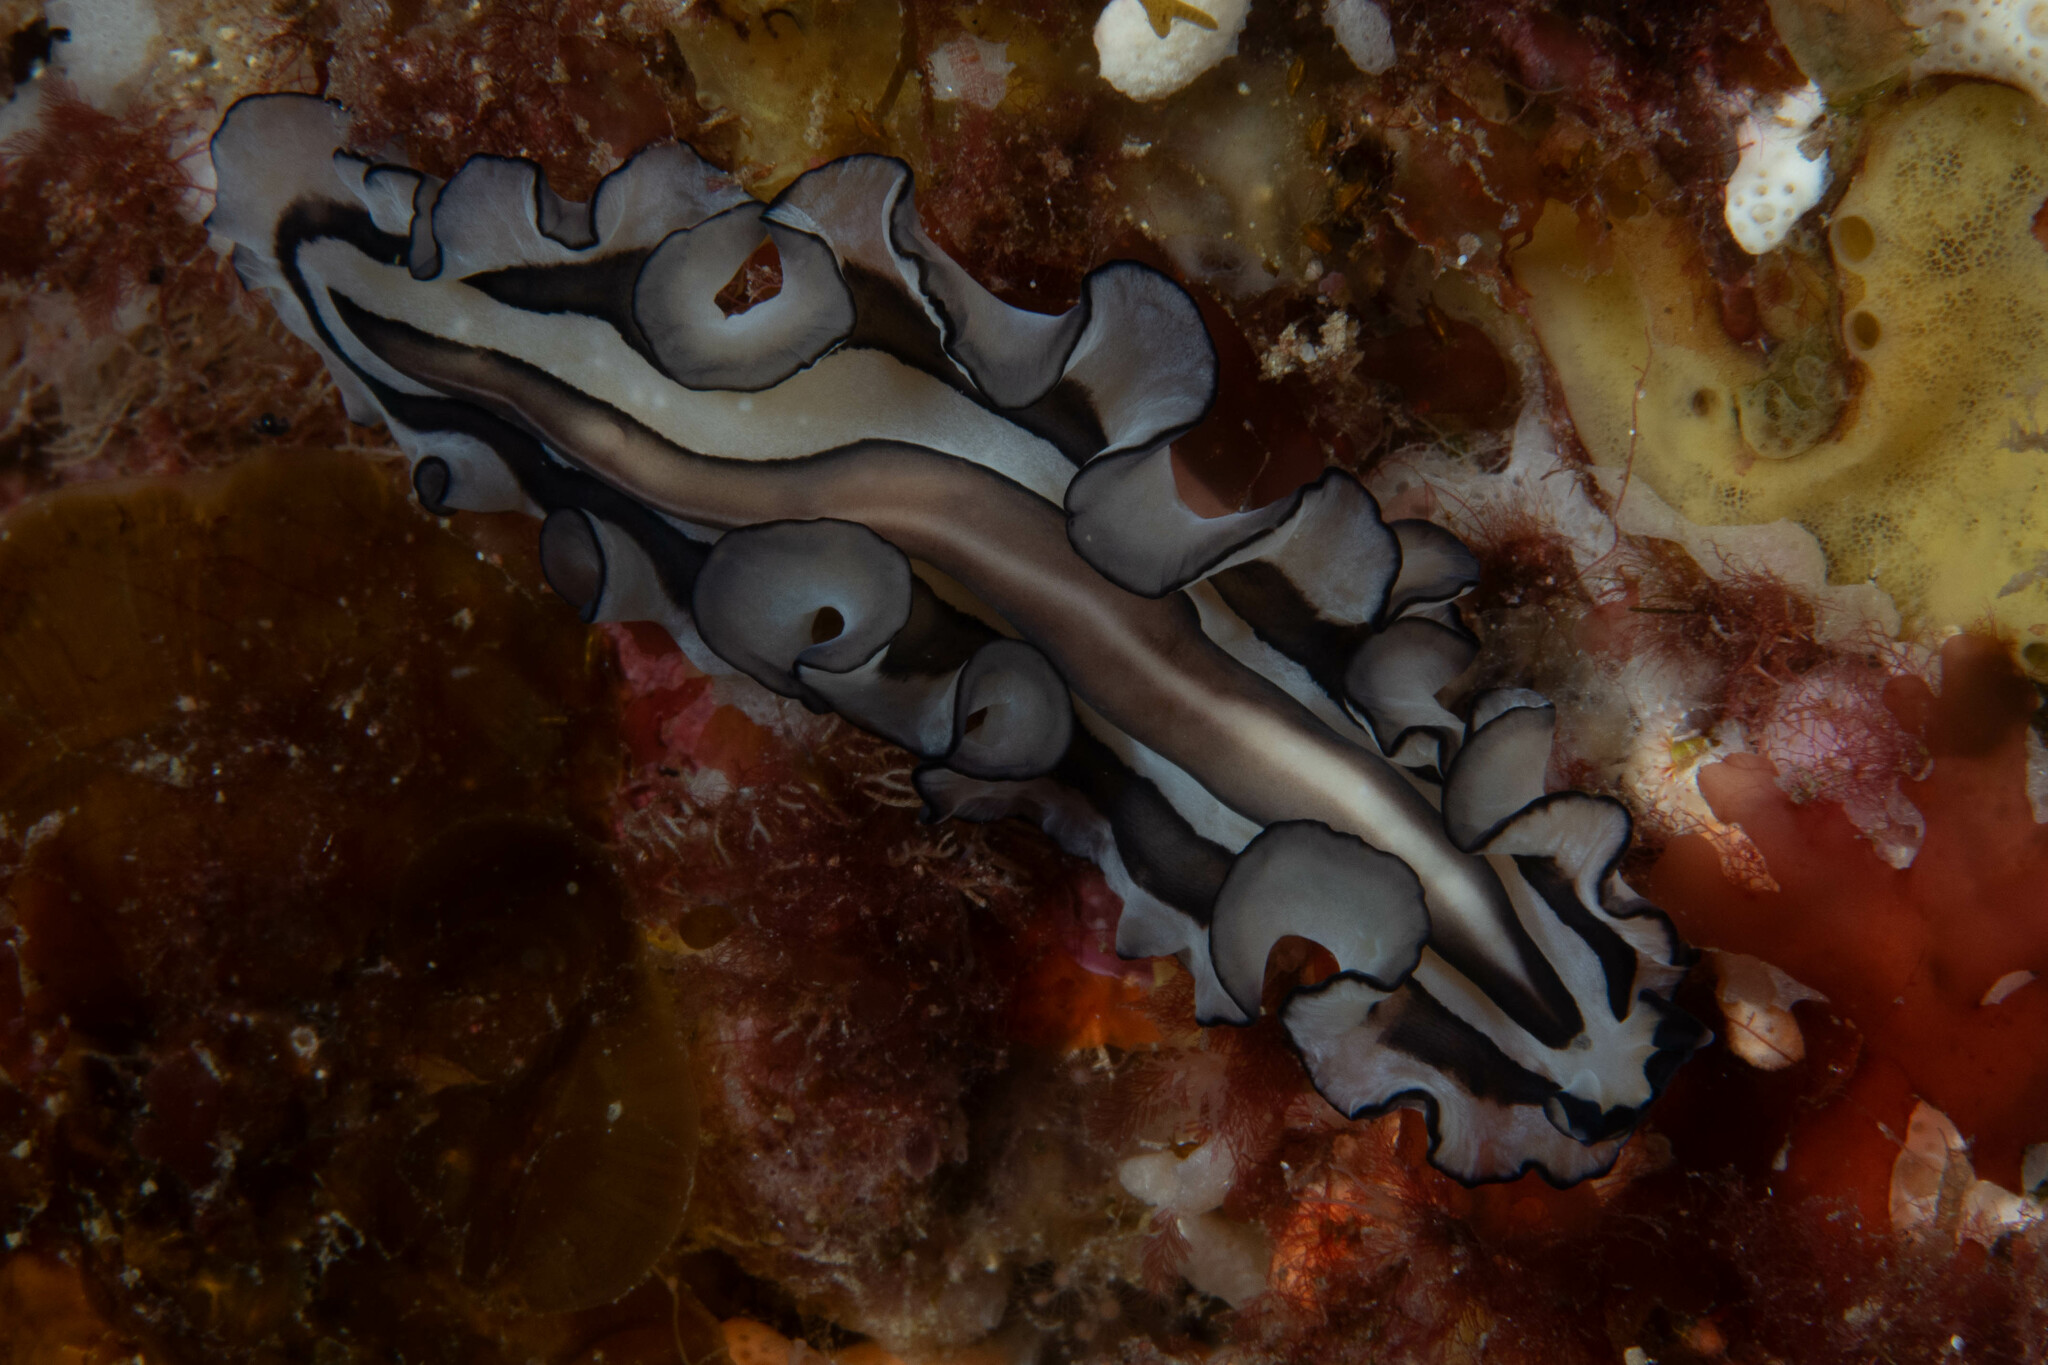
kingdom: Animalia
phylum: Platyhelminthes
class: Turbellaria
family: Pseudocerotidae
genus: Pseudobiceros
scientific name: Pseudobiceros gratus
